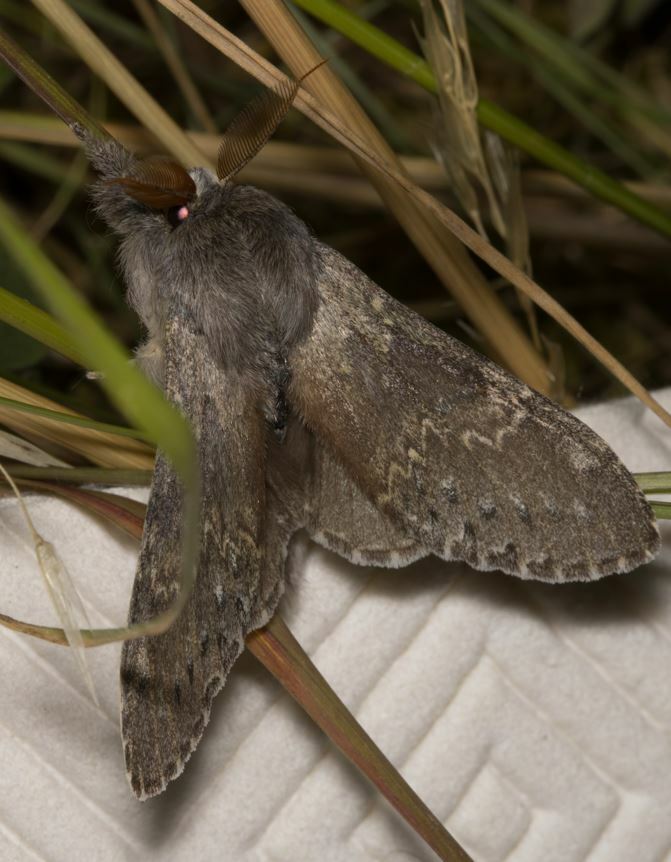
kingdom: Animalia
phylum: Arthropoda
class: Insecta
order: Lepidoptera
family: Notodontidae
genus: Stauropus
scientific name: Stauropus fagi
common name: Lobster moth
